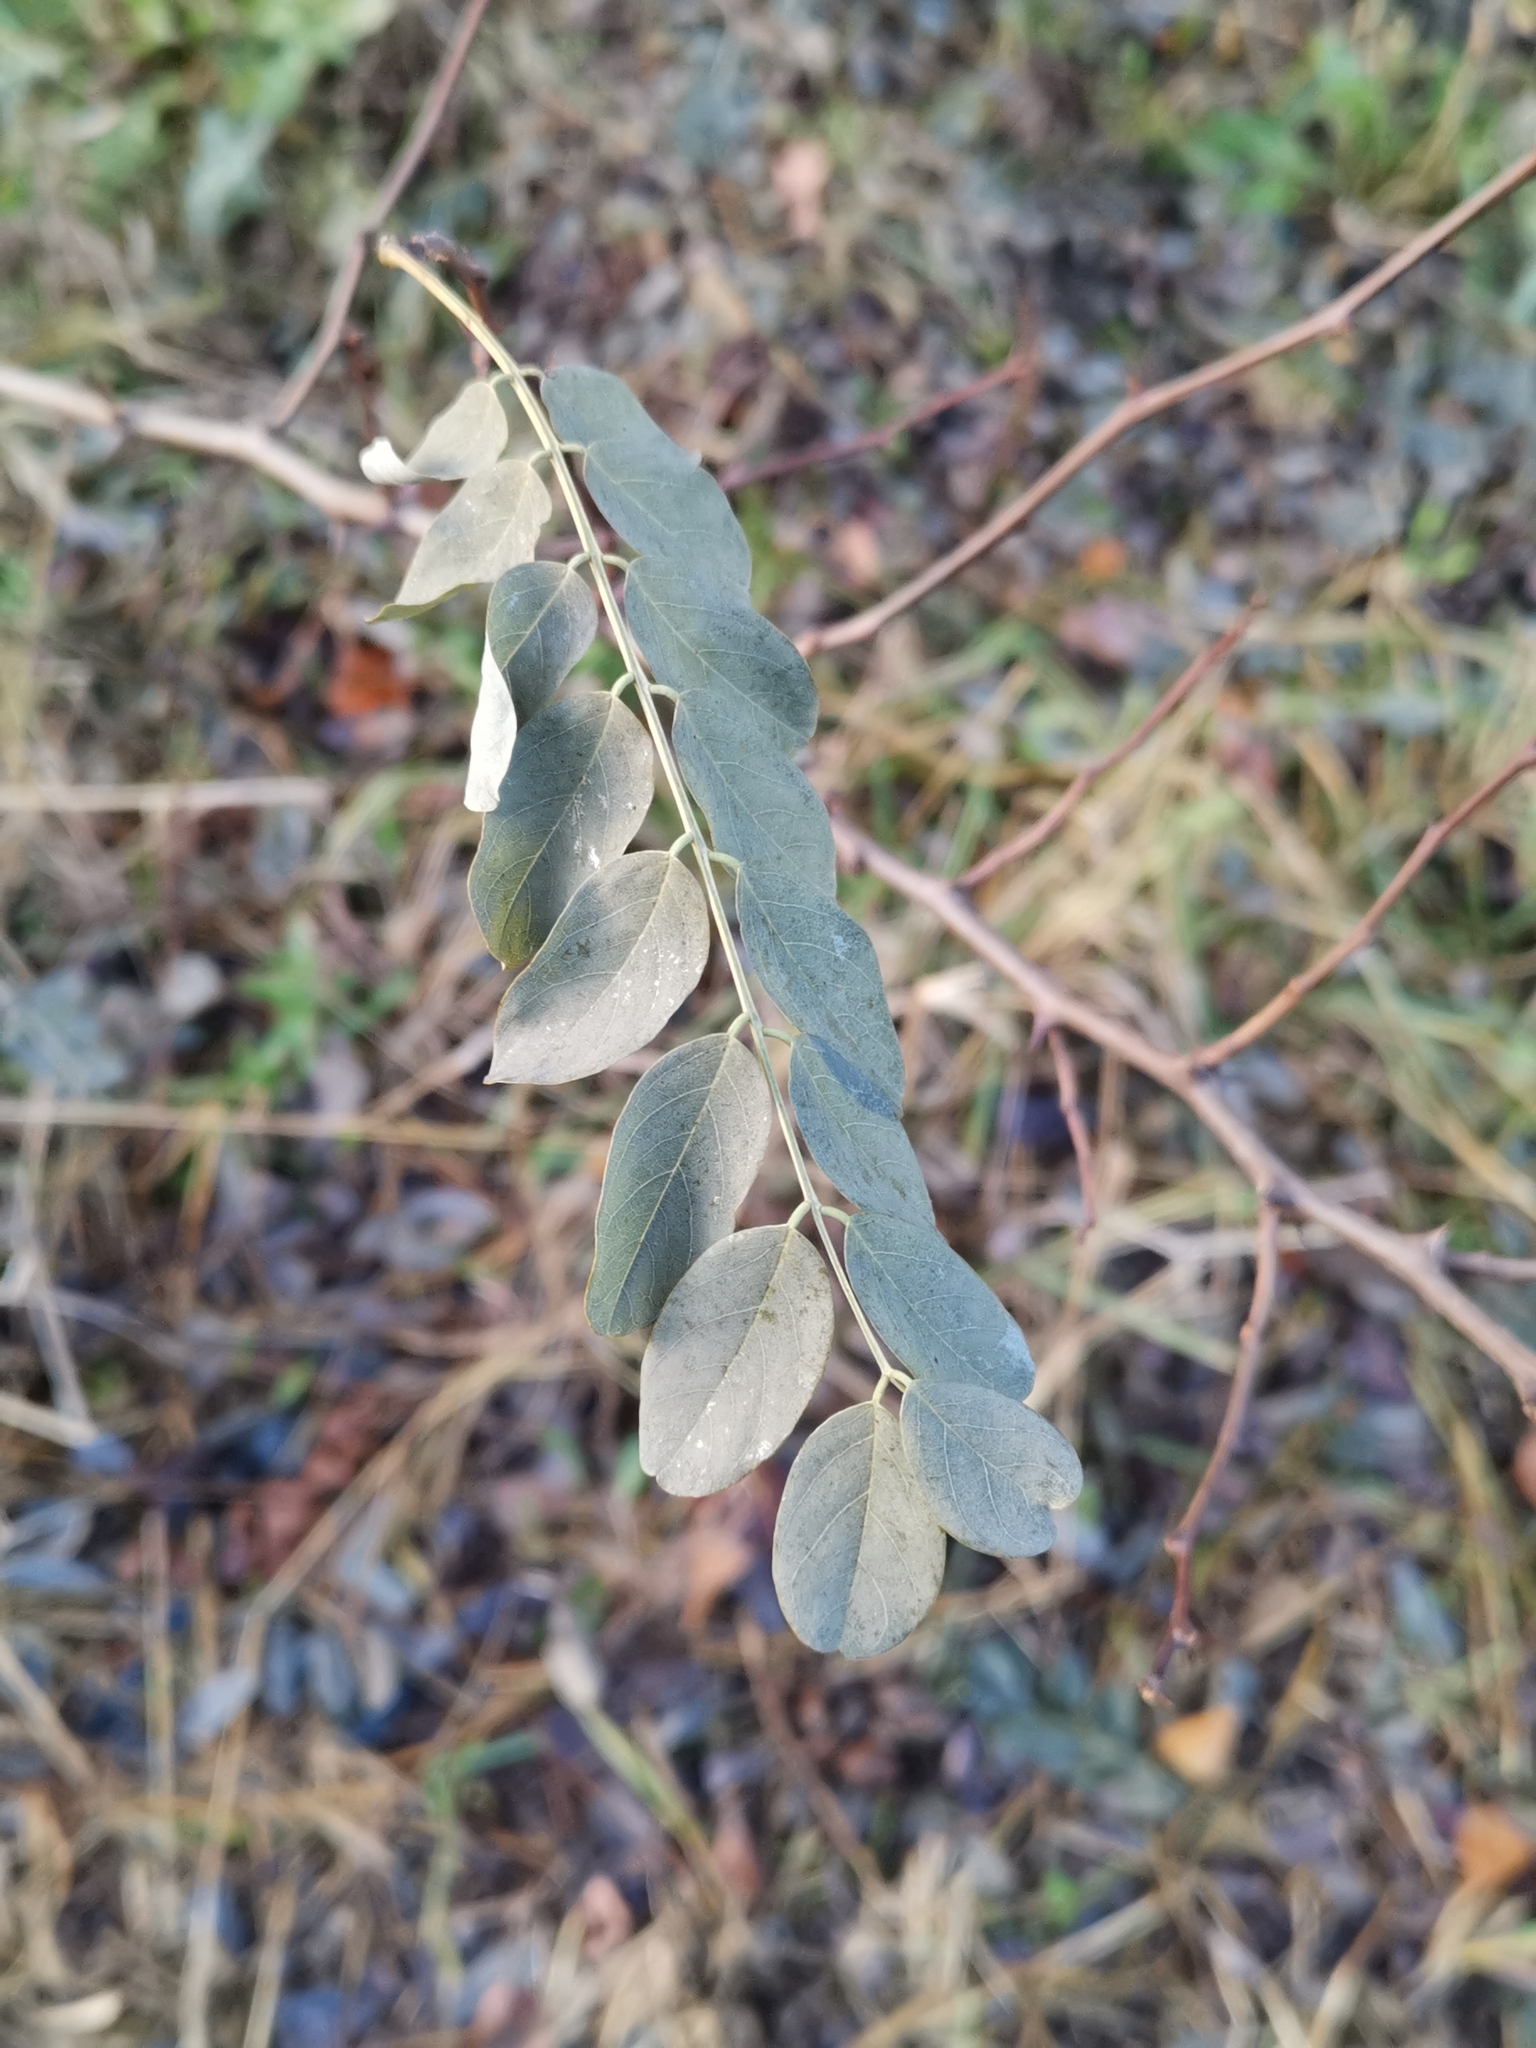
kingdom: Plantae
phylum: Tracheophyta
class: Magnoliopsida
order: Fabales
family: Fabaceae
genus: Robinia
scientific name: Robinia pseudoacacia
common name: Black locust
